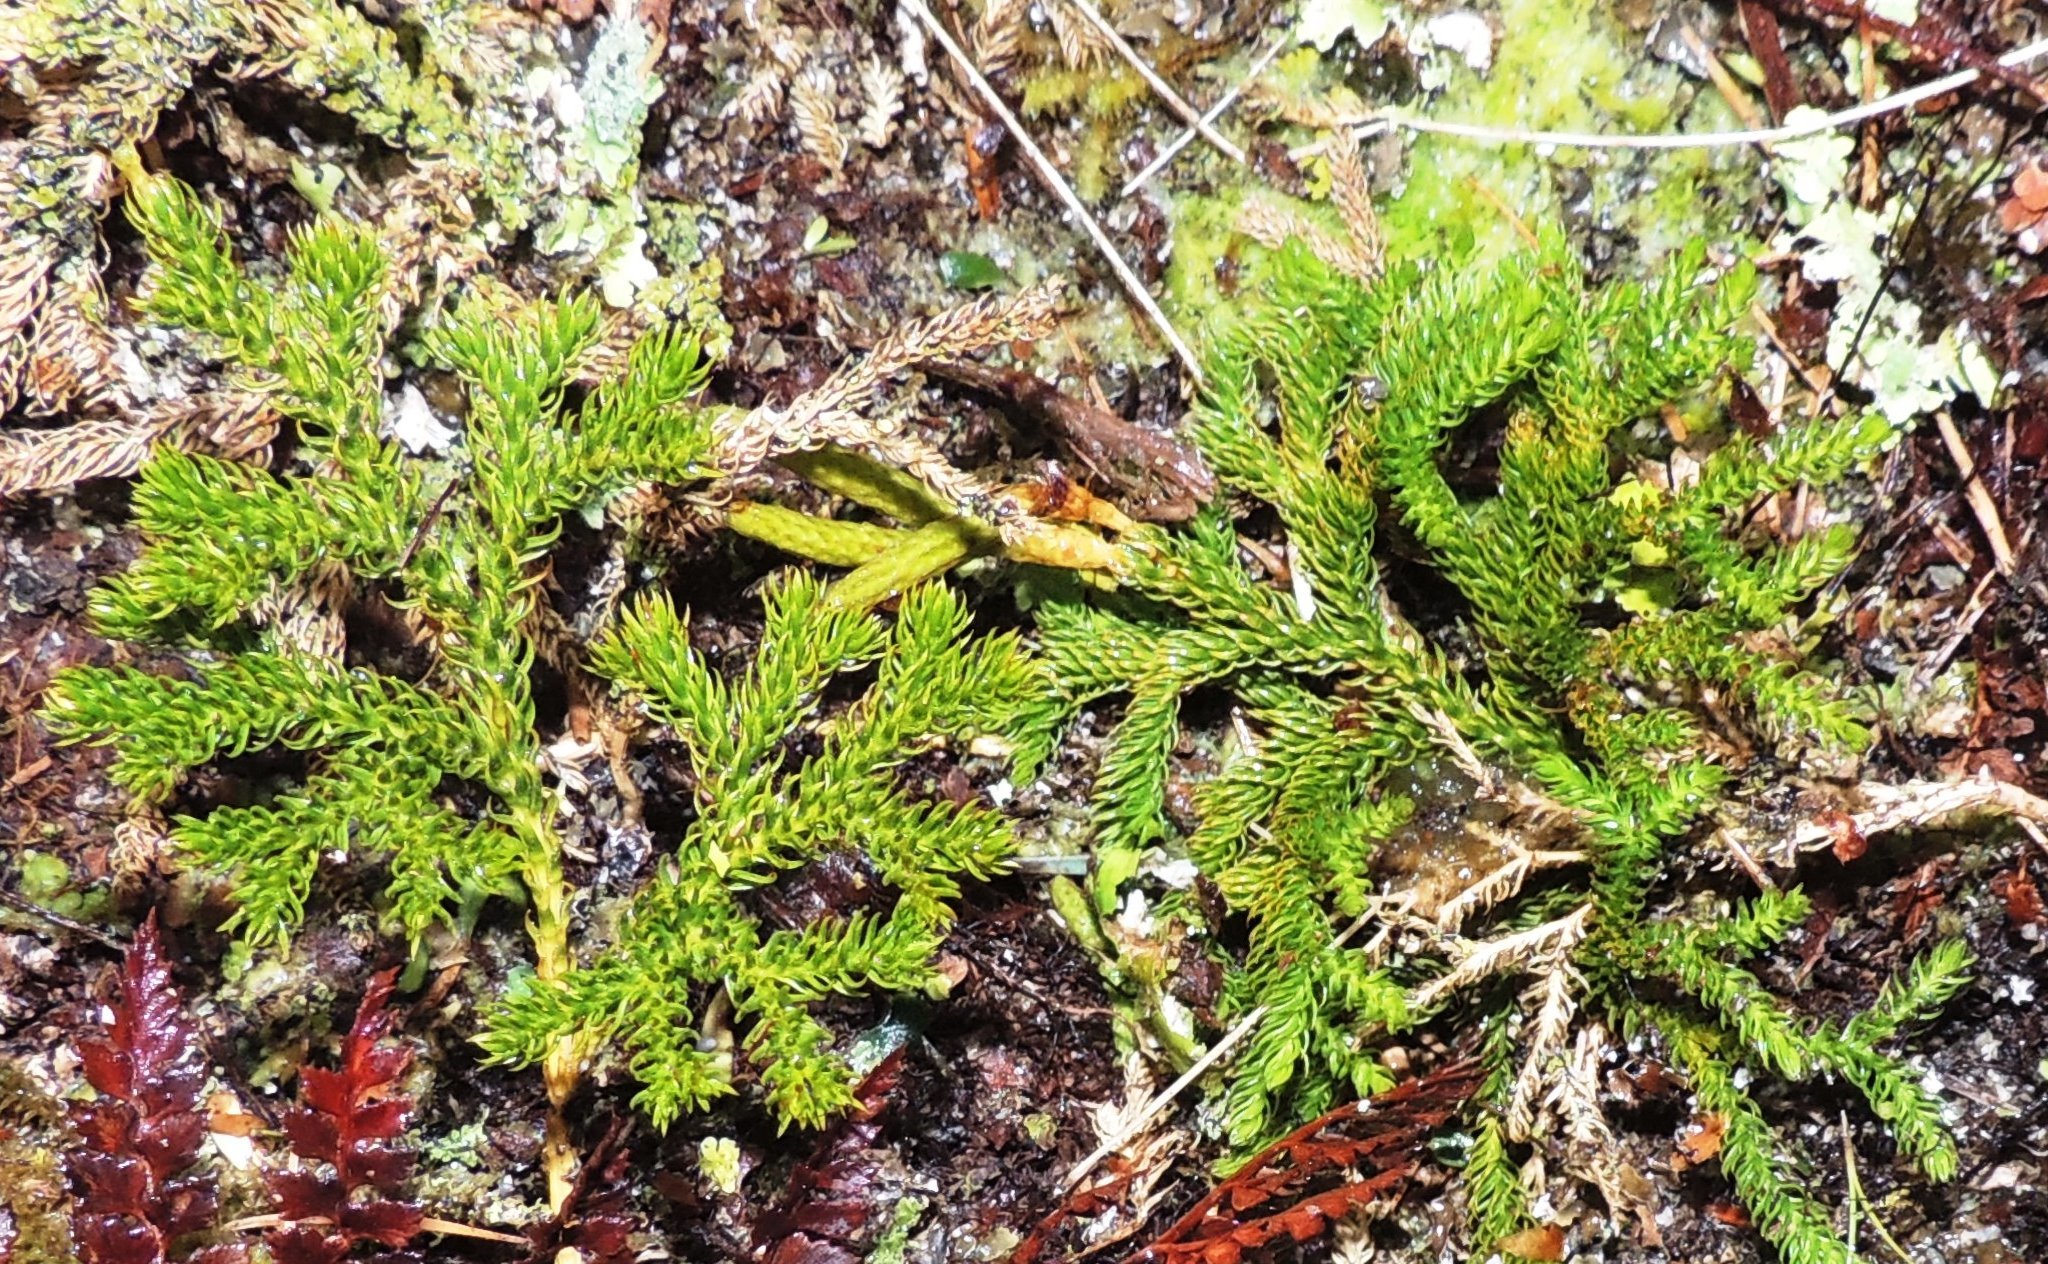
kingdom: Plantae
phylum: Tracheophyta
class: Lycopodiopsida
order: Lycopodiales
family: Lycopodiaceae
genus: Austrolycopodium
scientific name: Austrolycopodium fastigiatum
